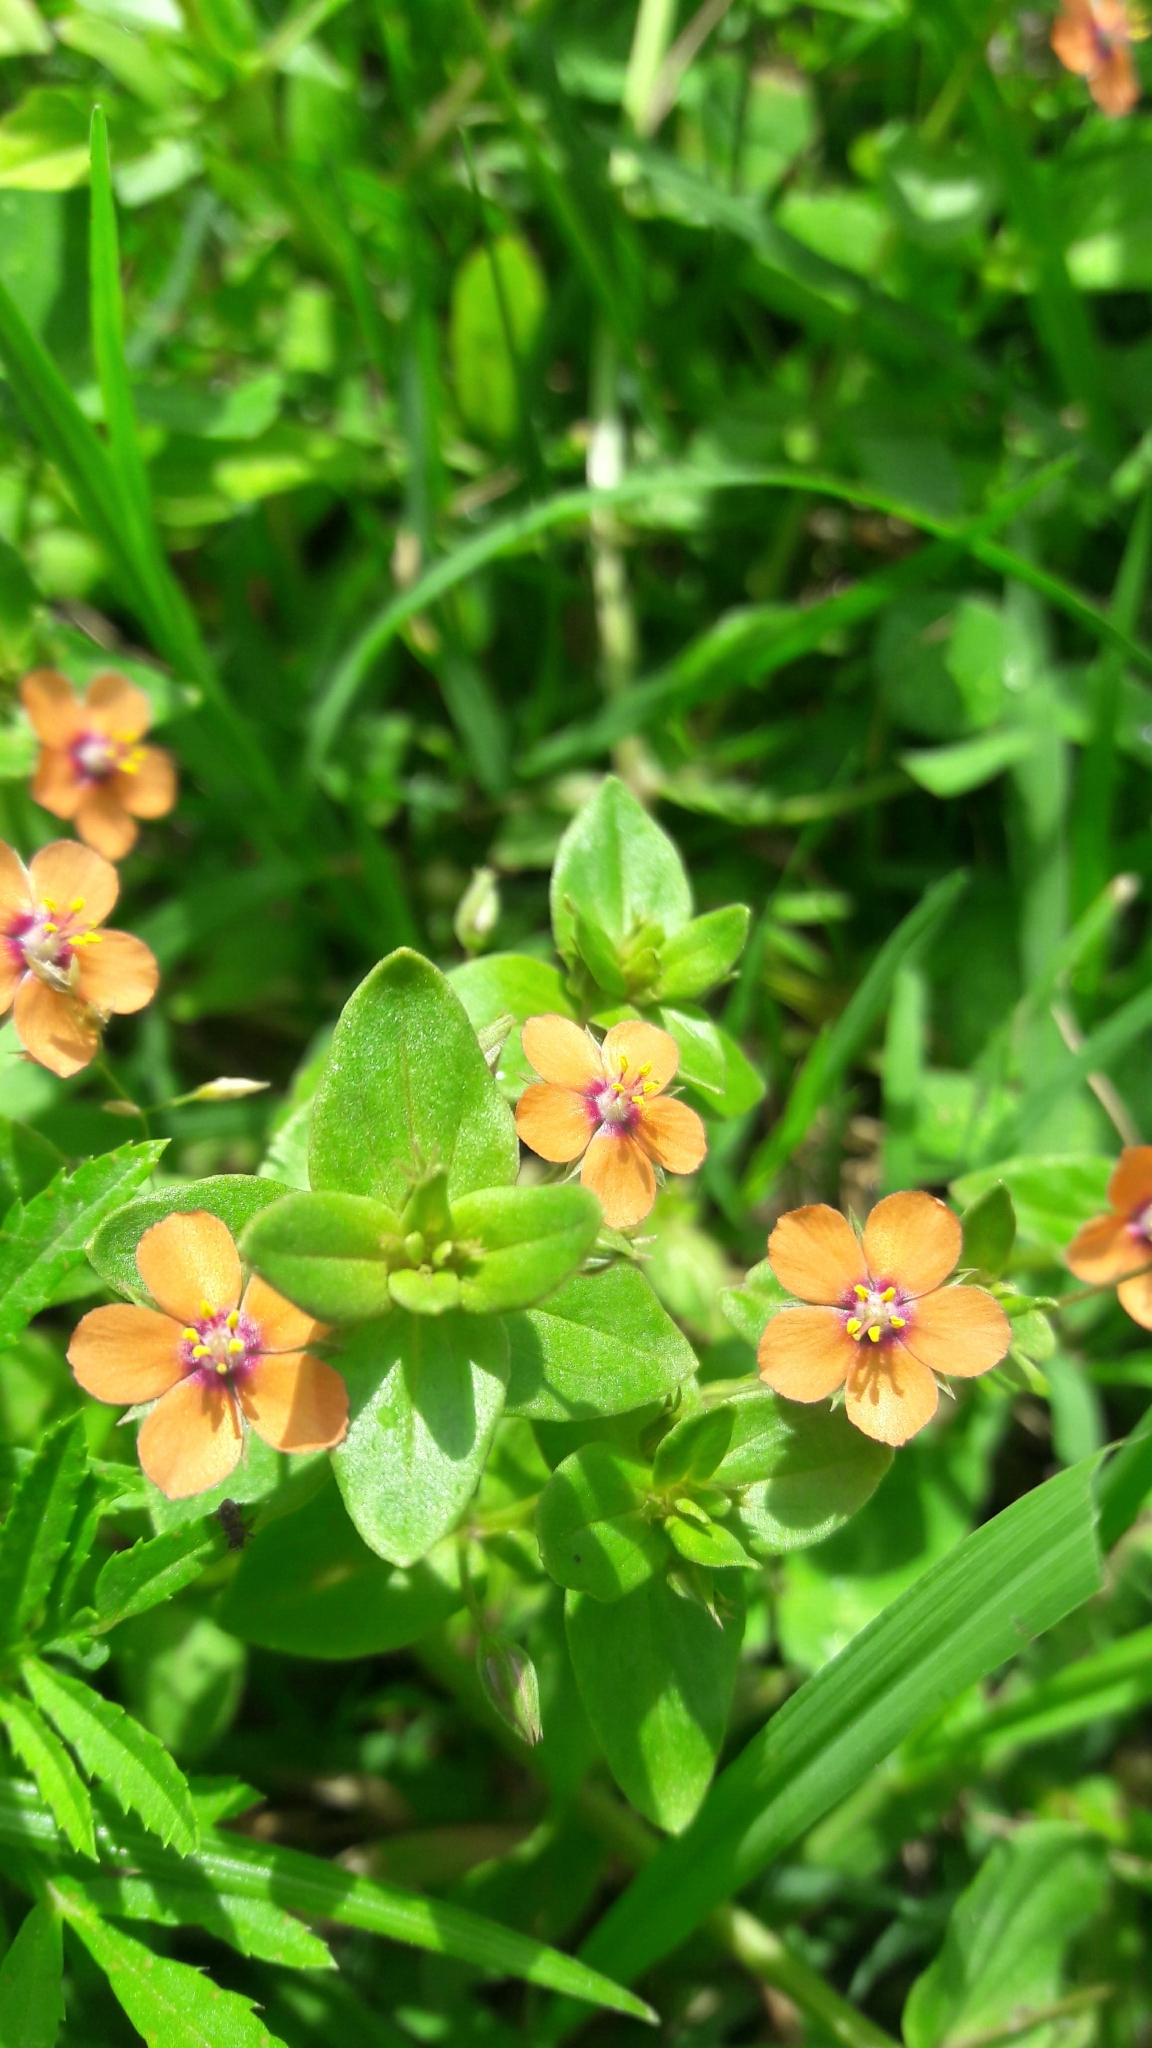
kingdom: Plantae
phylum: Tracheophyta
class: Magnoliopsida
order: Ericales
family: Primulaceae
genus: Lysimachia
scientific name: Lysimachia arvensis
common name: Scarlet pimpernel
